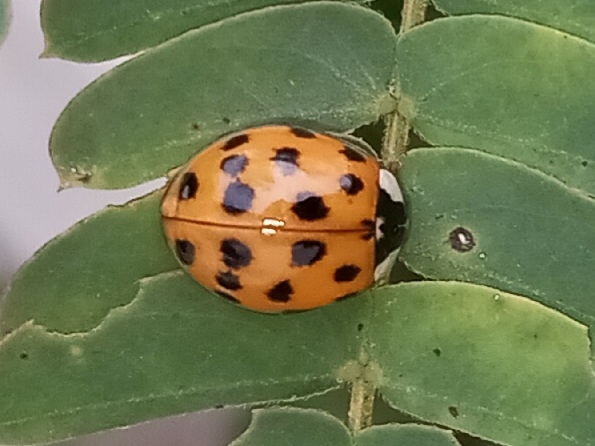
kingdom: Animalia
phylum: Arthropoda
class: Insecta
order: Coleoptera
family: Coccinellidae
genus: Harmonia
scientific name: Harmonia axyridis
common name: Harlequin ladybird
